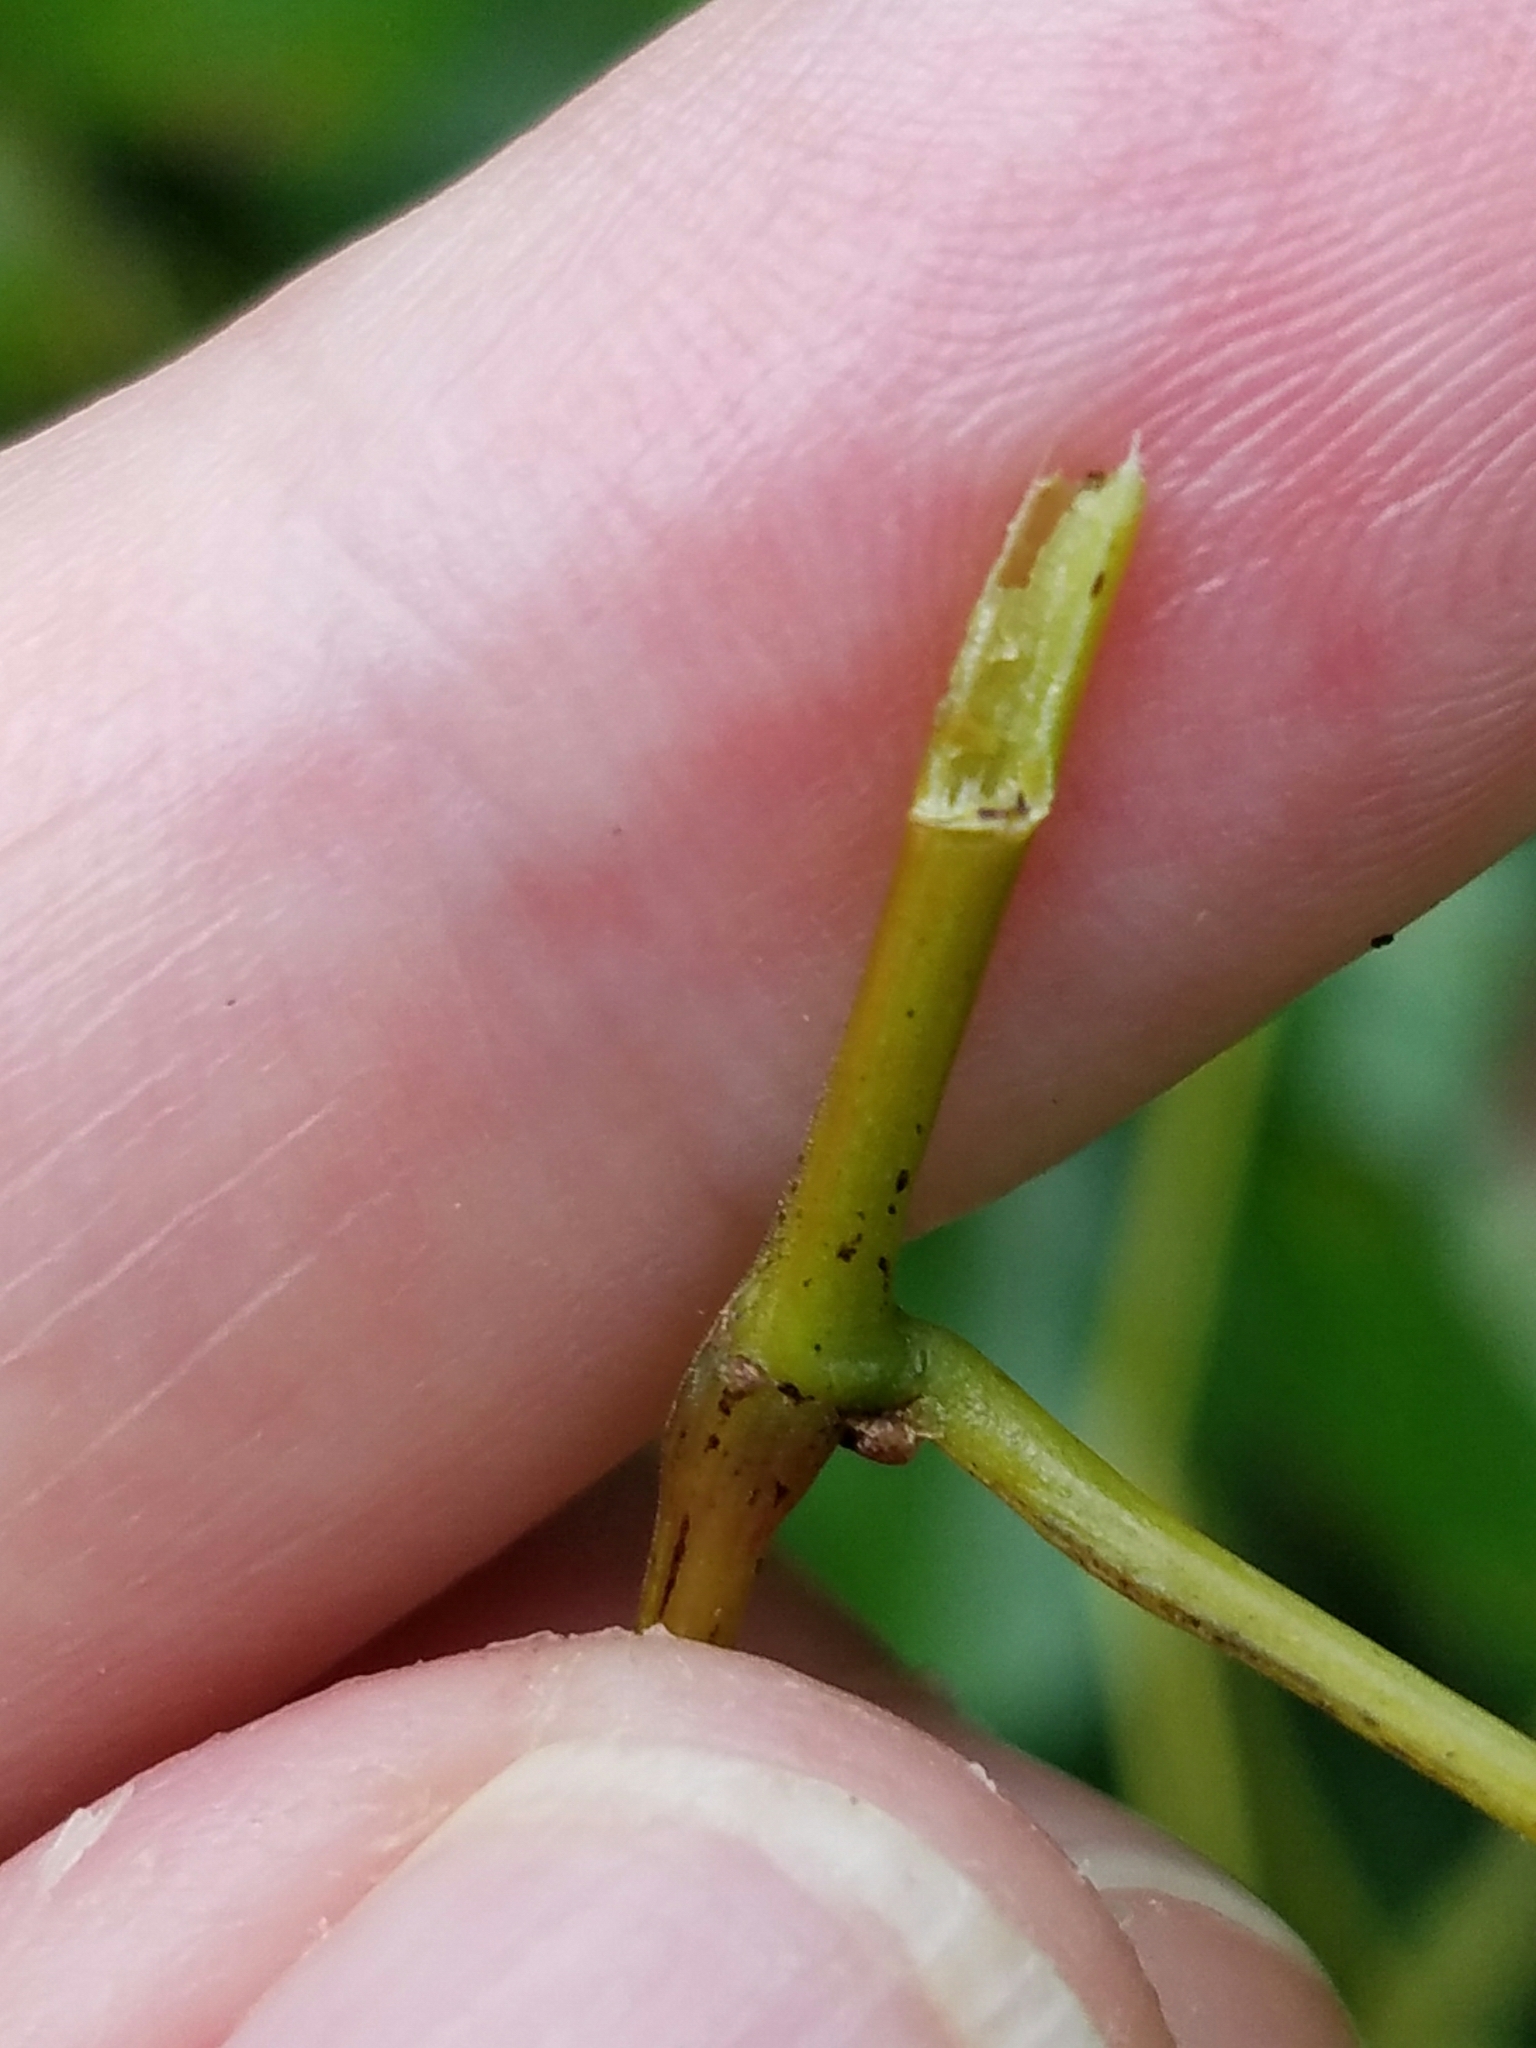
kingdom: Plantae
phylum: Tracheophyta
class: Magnoliopsida
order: Vitales
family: Vitaceae
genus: Vitis
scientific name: Vitis vulpina
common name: Frost grape
